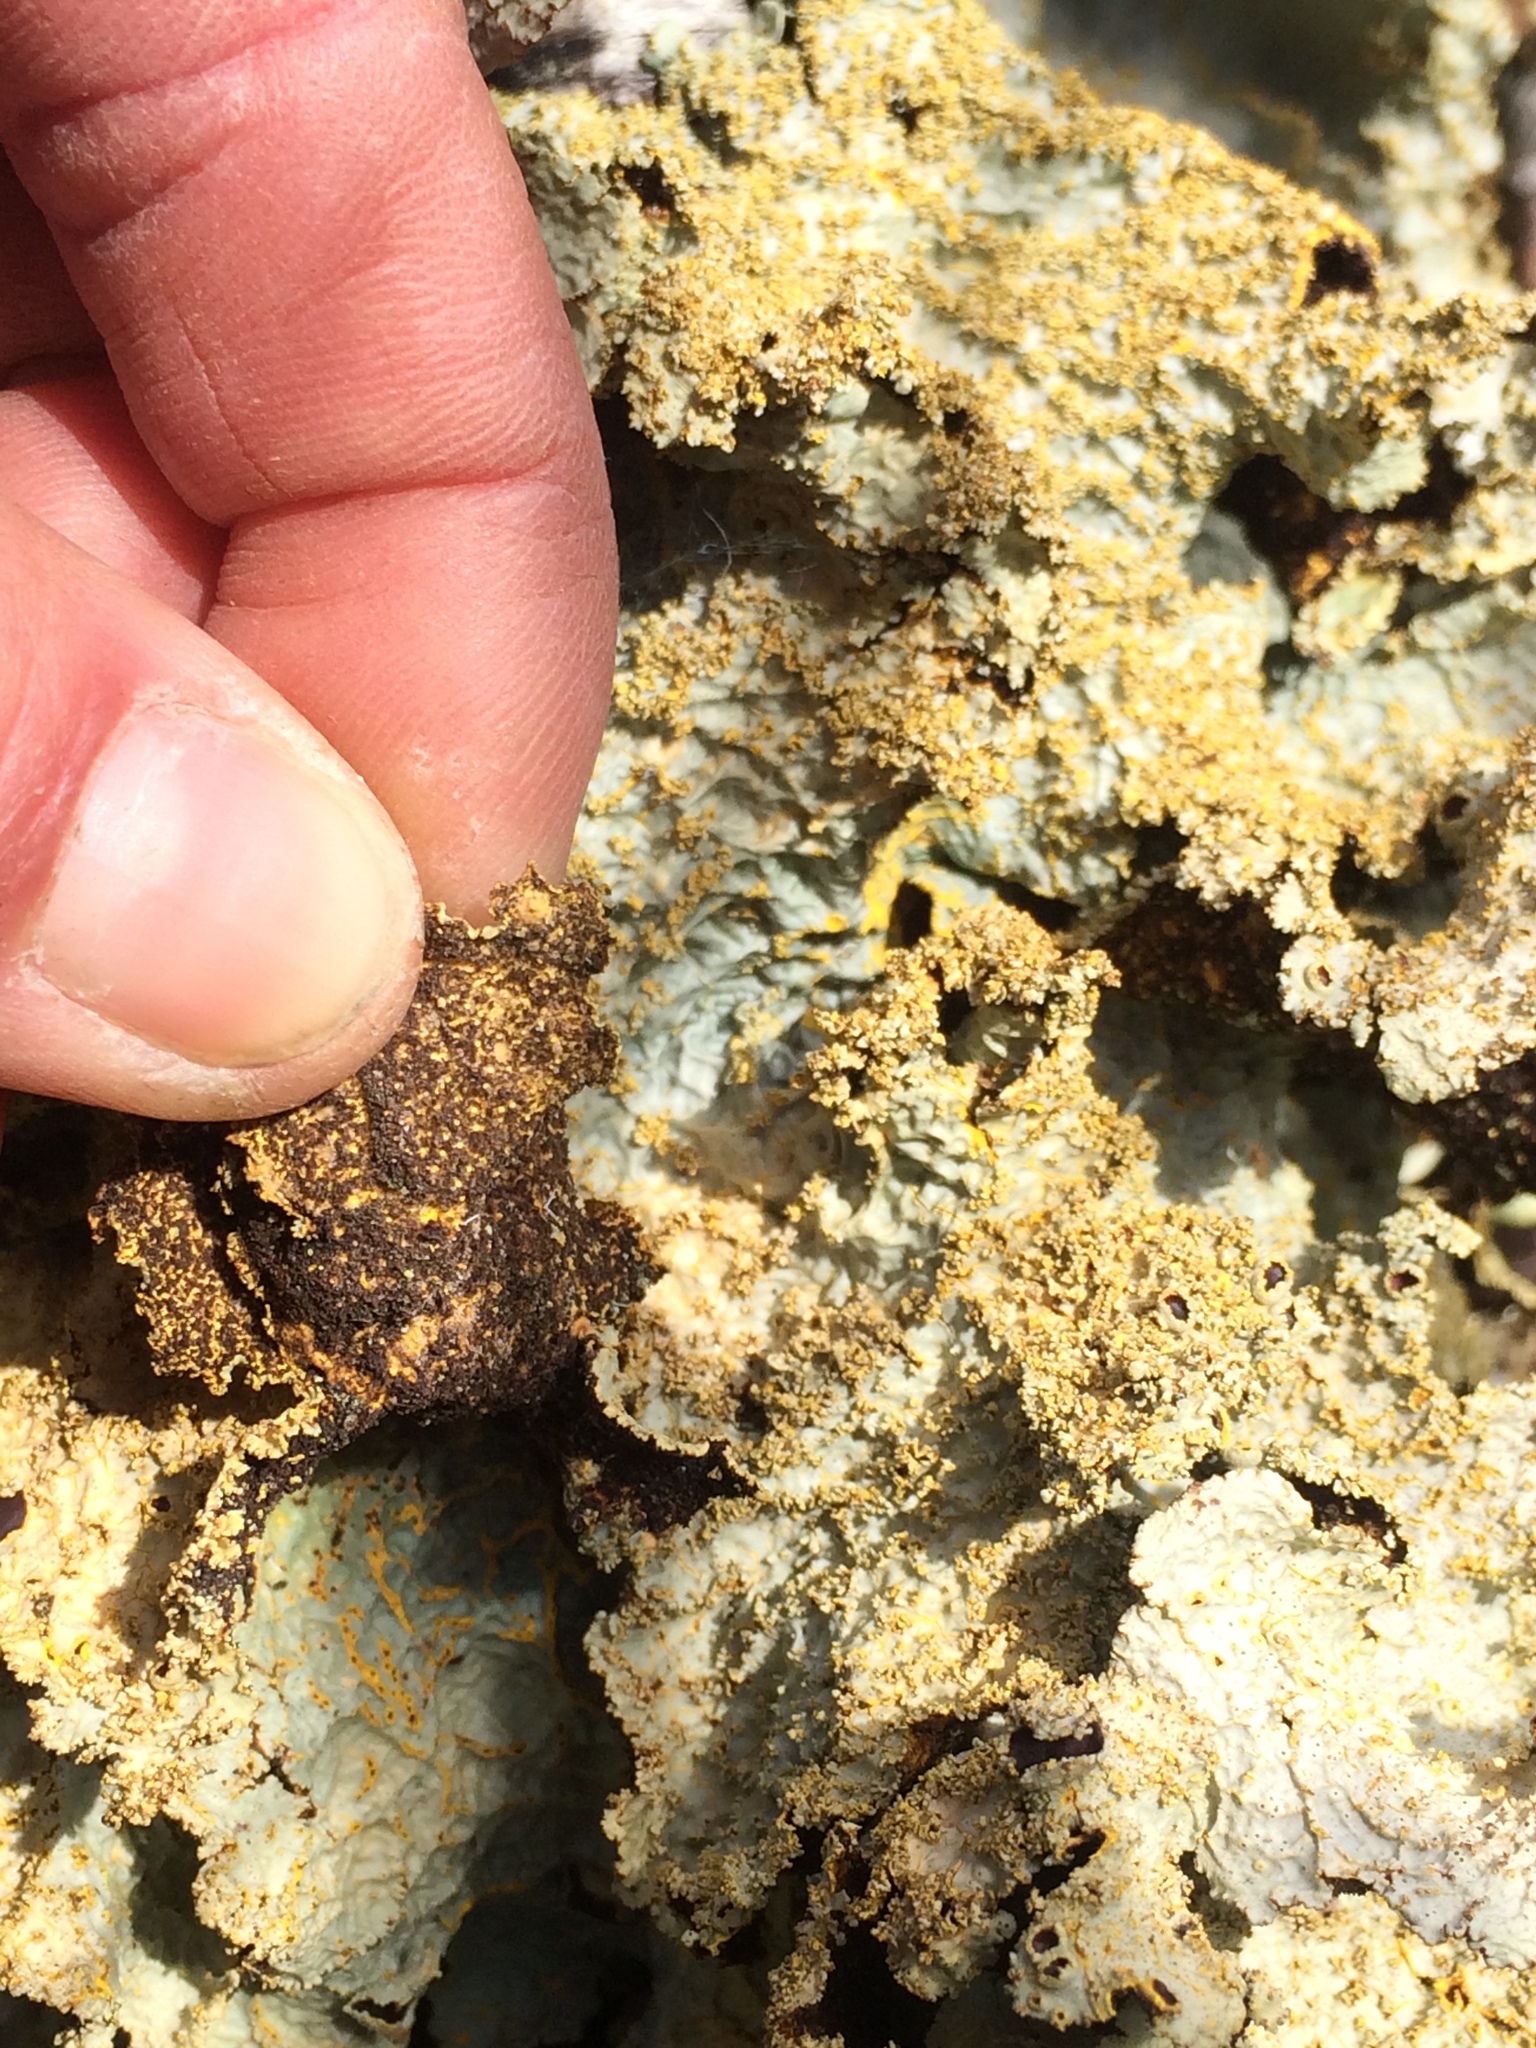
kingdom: Fungi
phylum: Ascomycota
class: Lecanoromycetes
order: Peltigerales
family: Lobariaceae
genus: Yarrumia
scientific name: Yarrumia colensoi
